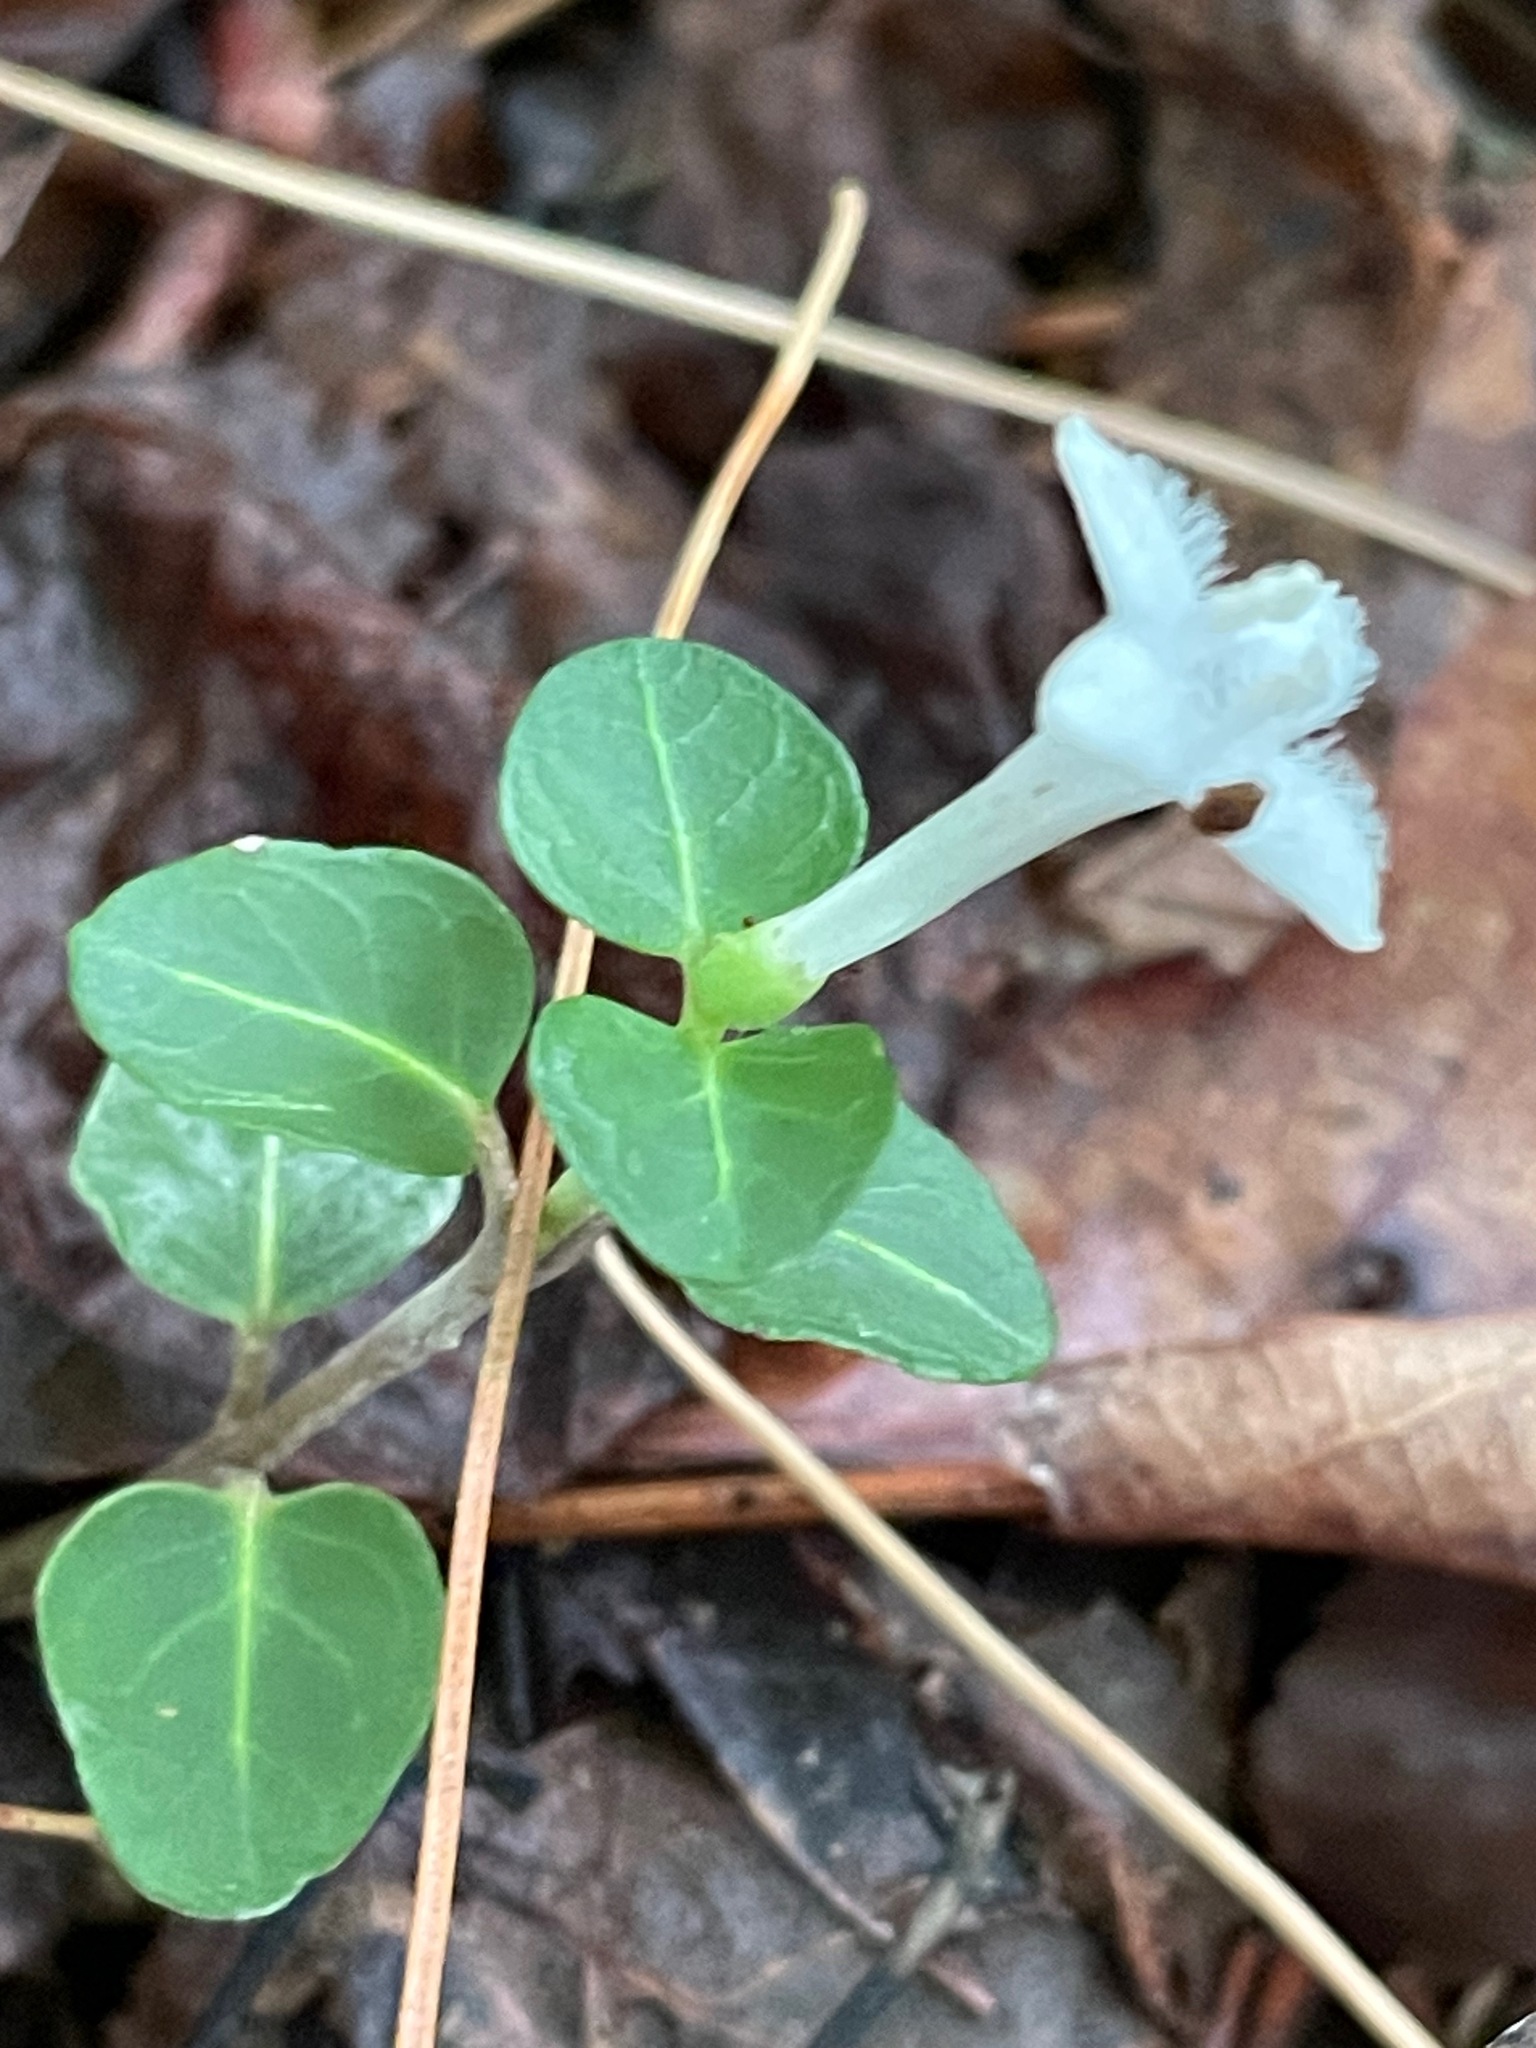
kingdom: Plantae
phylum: Tracheophyta
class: Magnoliopsida
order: Gentianales
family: Rubiaceae
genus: Mitchella
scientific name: Mitchella repens
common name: Partridge-berry
